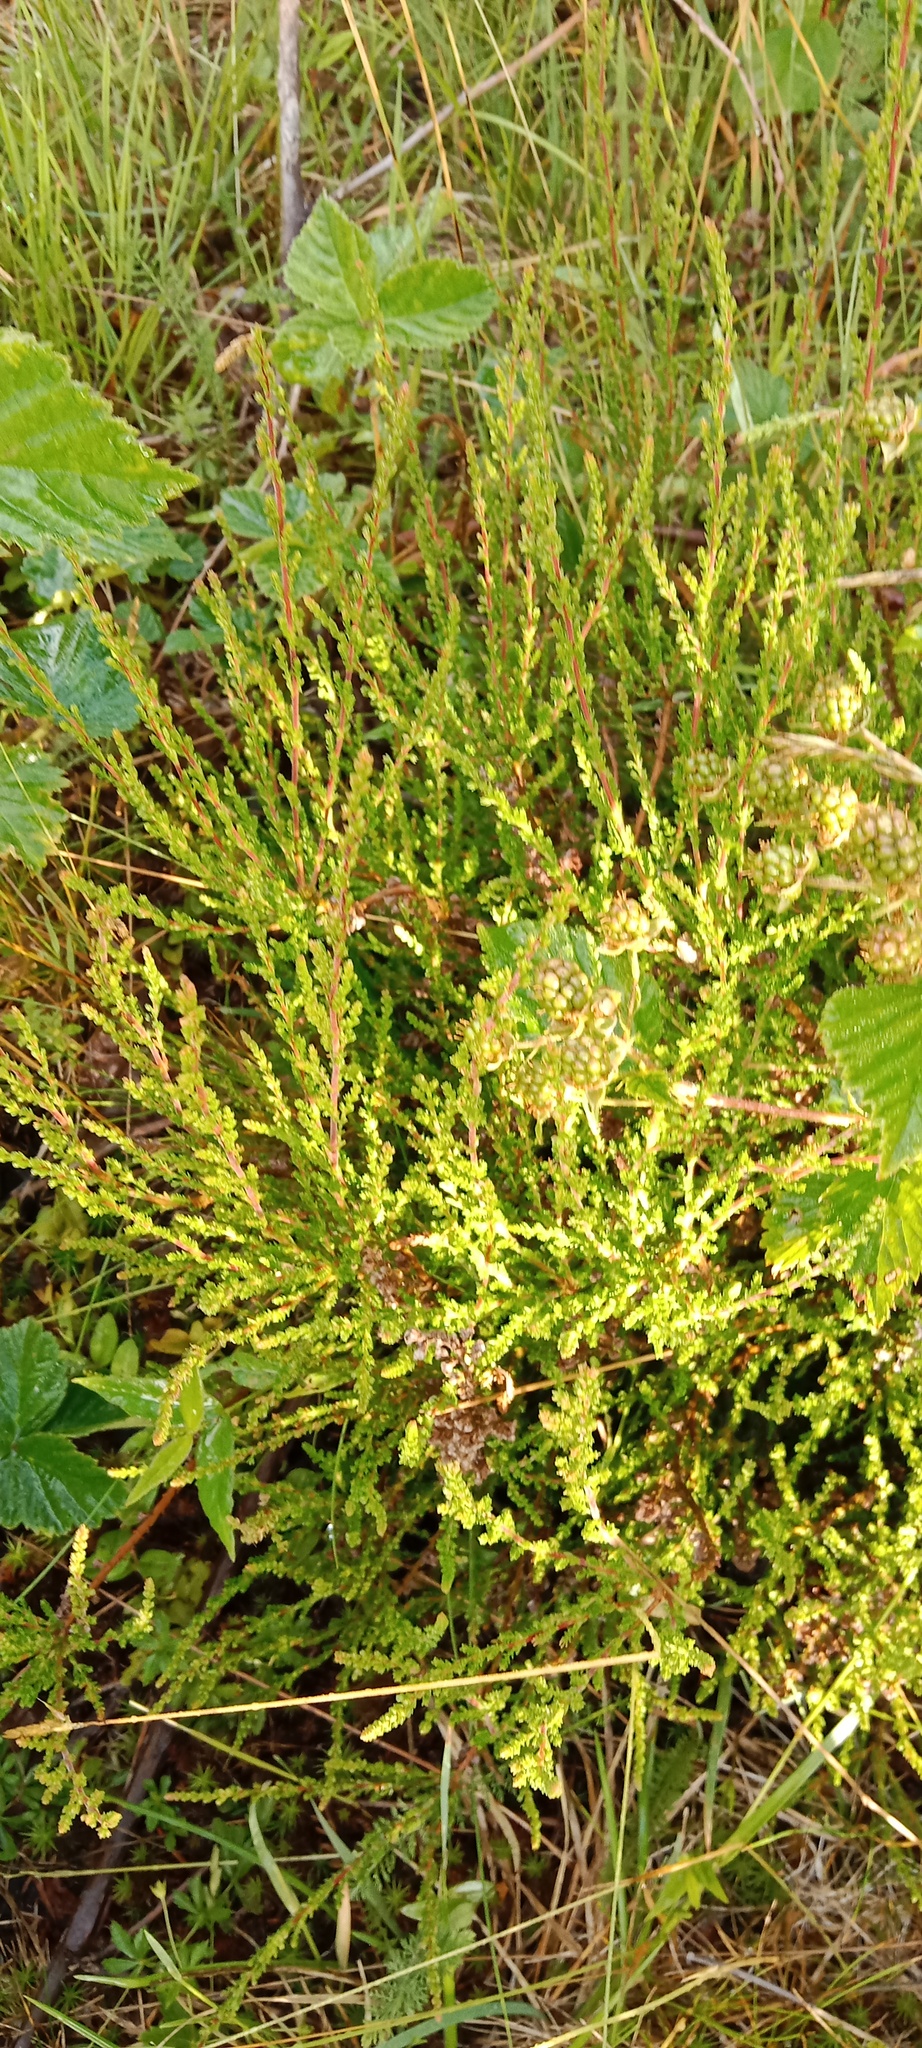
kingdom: Plantae
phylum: Tracheophyta
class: Magnoliopsida
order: Ericales
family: Ericaceae
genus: Calluna
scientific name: Calluna vulgaris
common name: Heather
